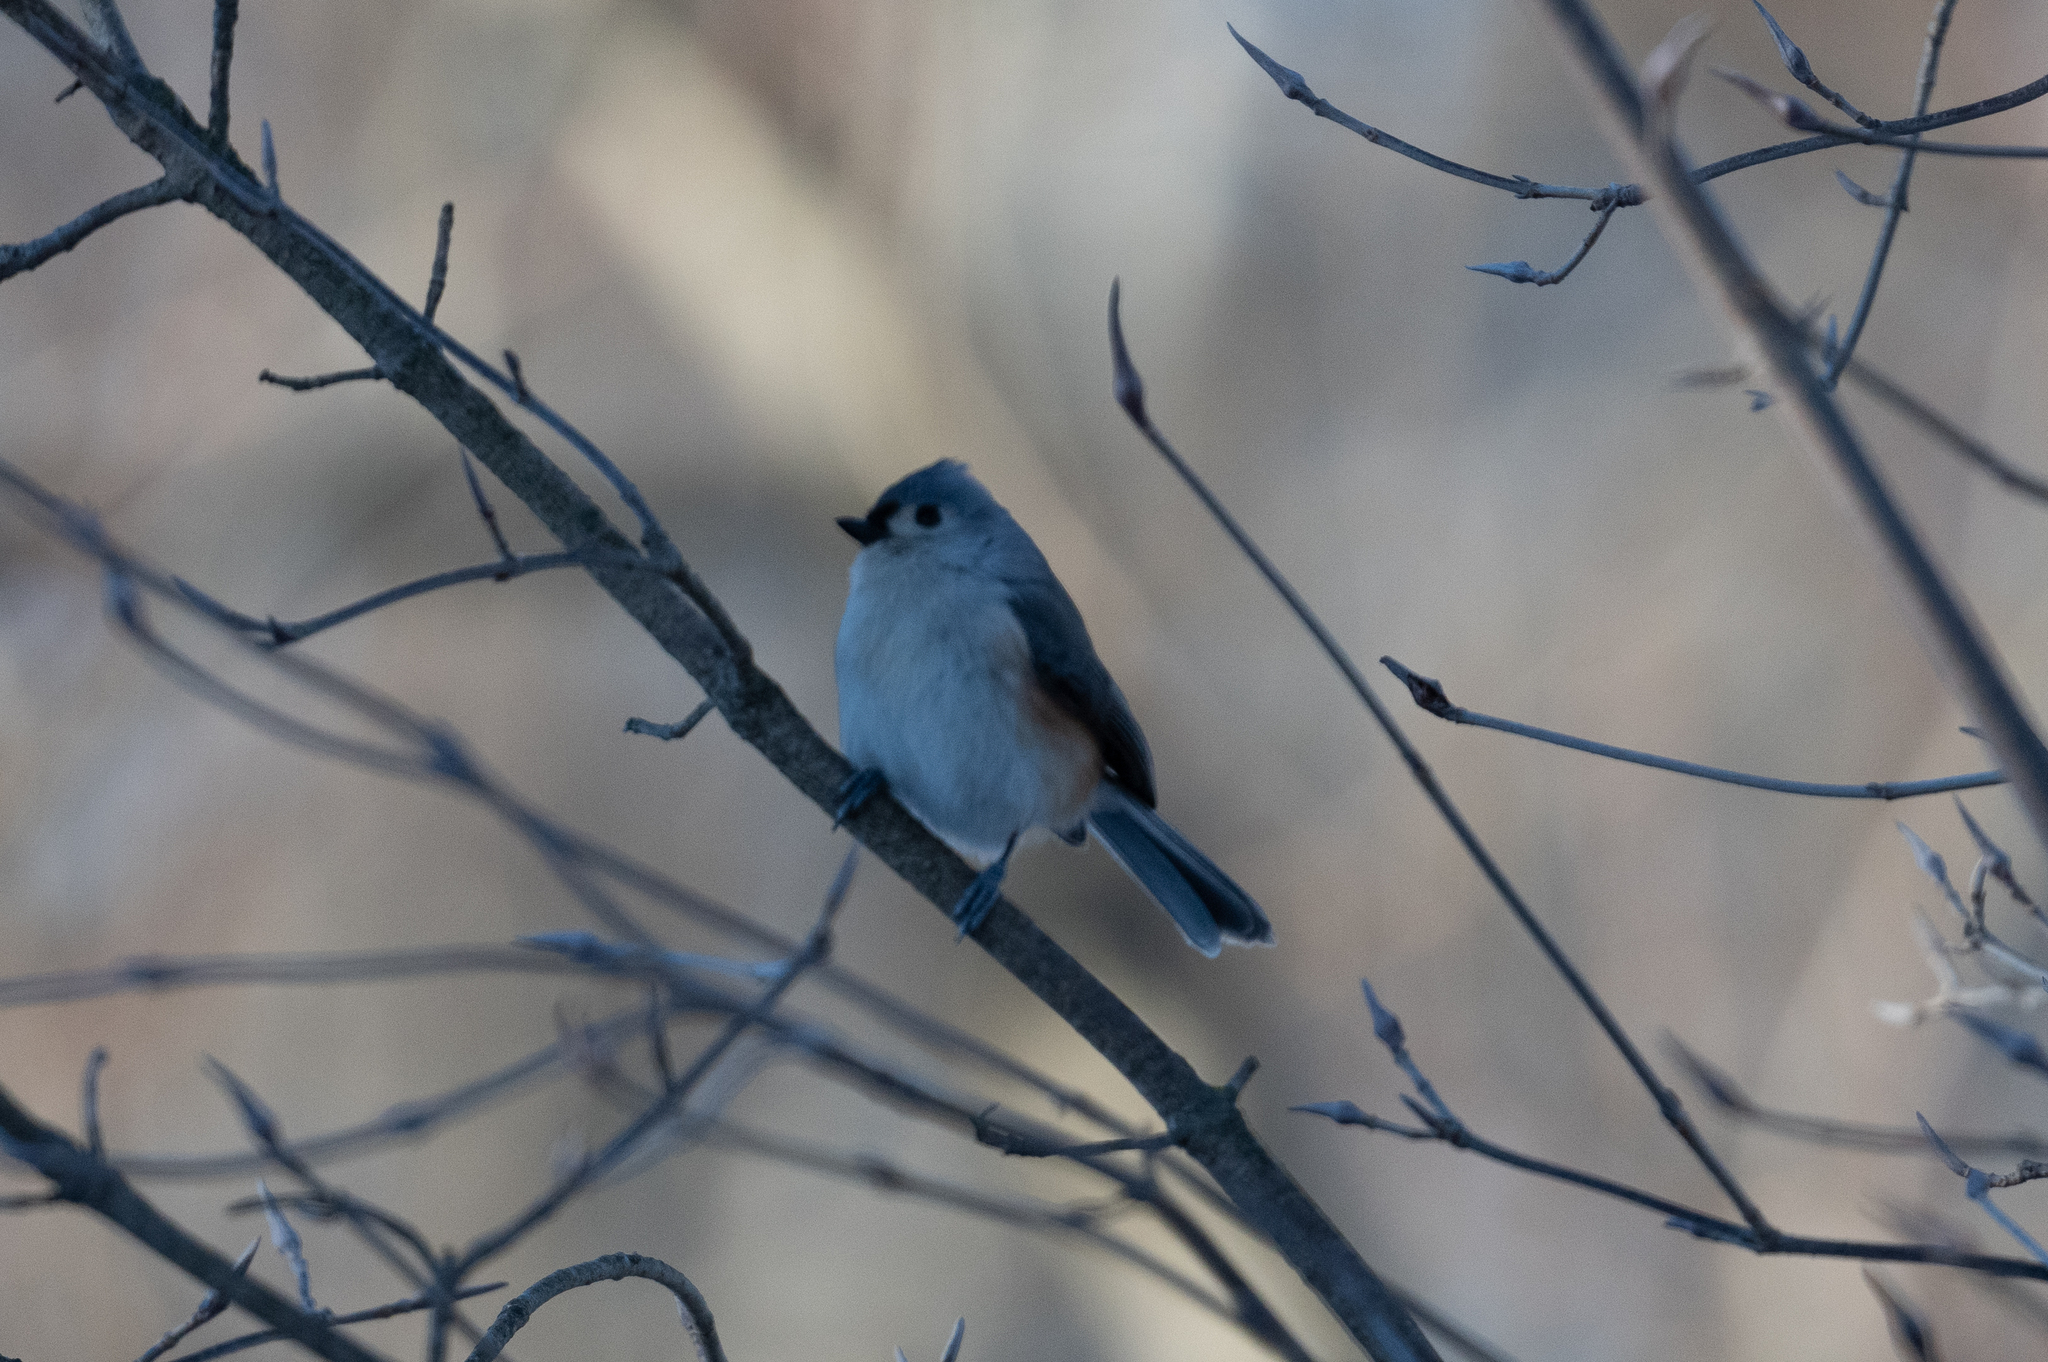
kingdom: Animalia
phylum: Chordata
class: Aves
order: Passeriformes
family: Paridae
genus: Baeolophus
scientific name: Baeolophus bicolor
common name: Tufted titmouse
